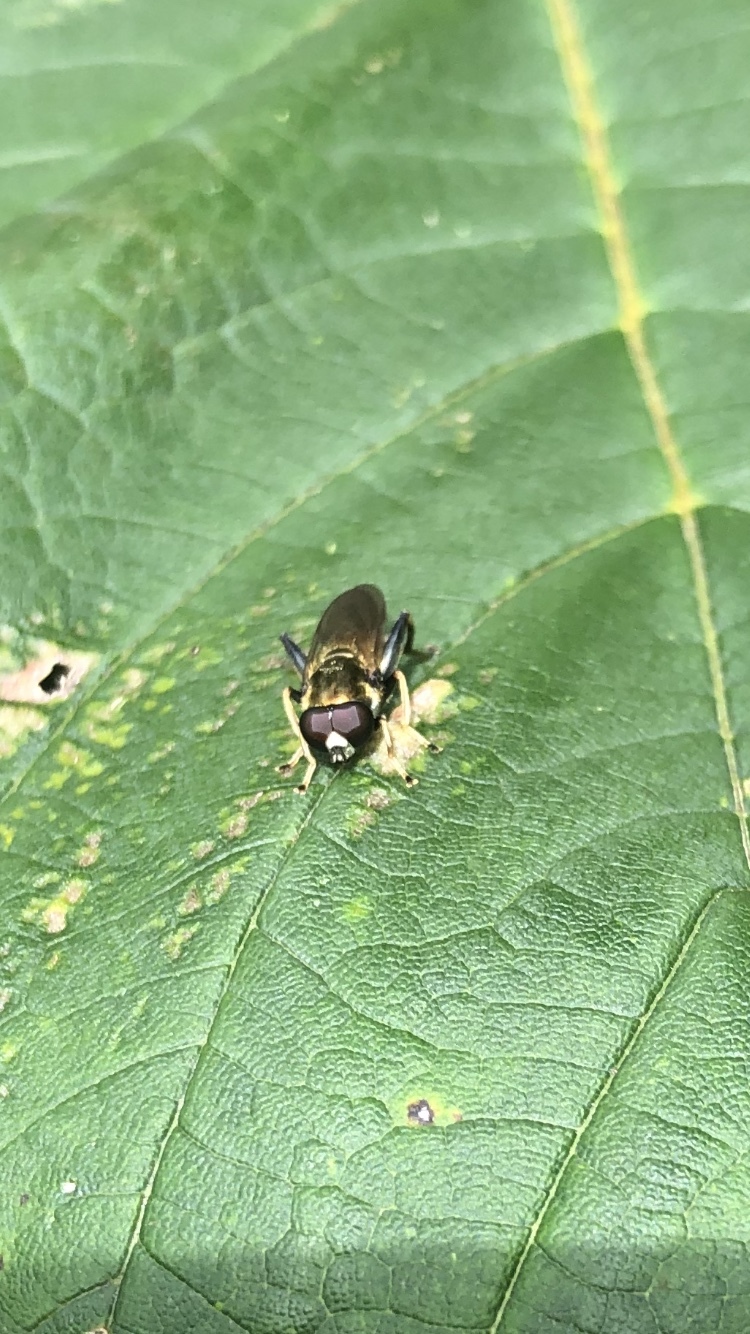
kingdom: Animalia
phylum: Arthropoda
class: Insecta
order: Diptera
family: Syrphidae
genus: Xylota
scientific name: Xylota segnis
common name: Brown-toed forest fly
